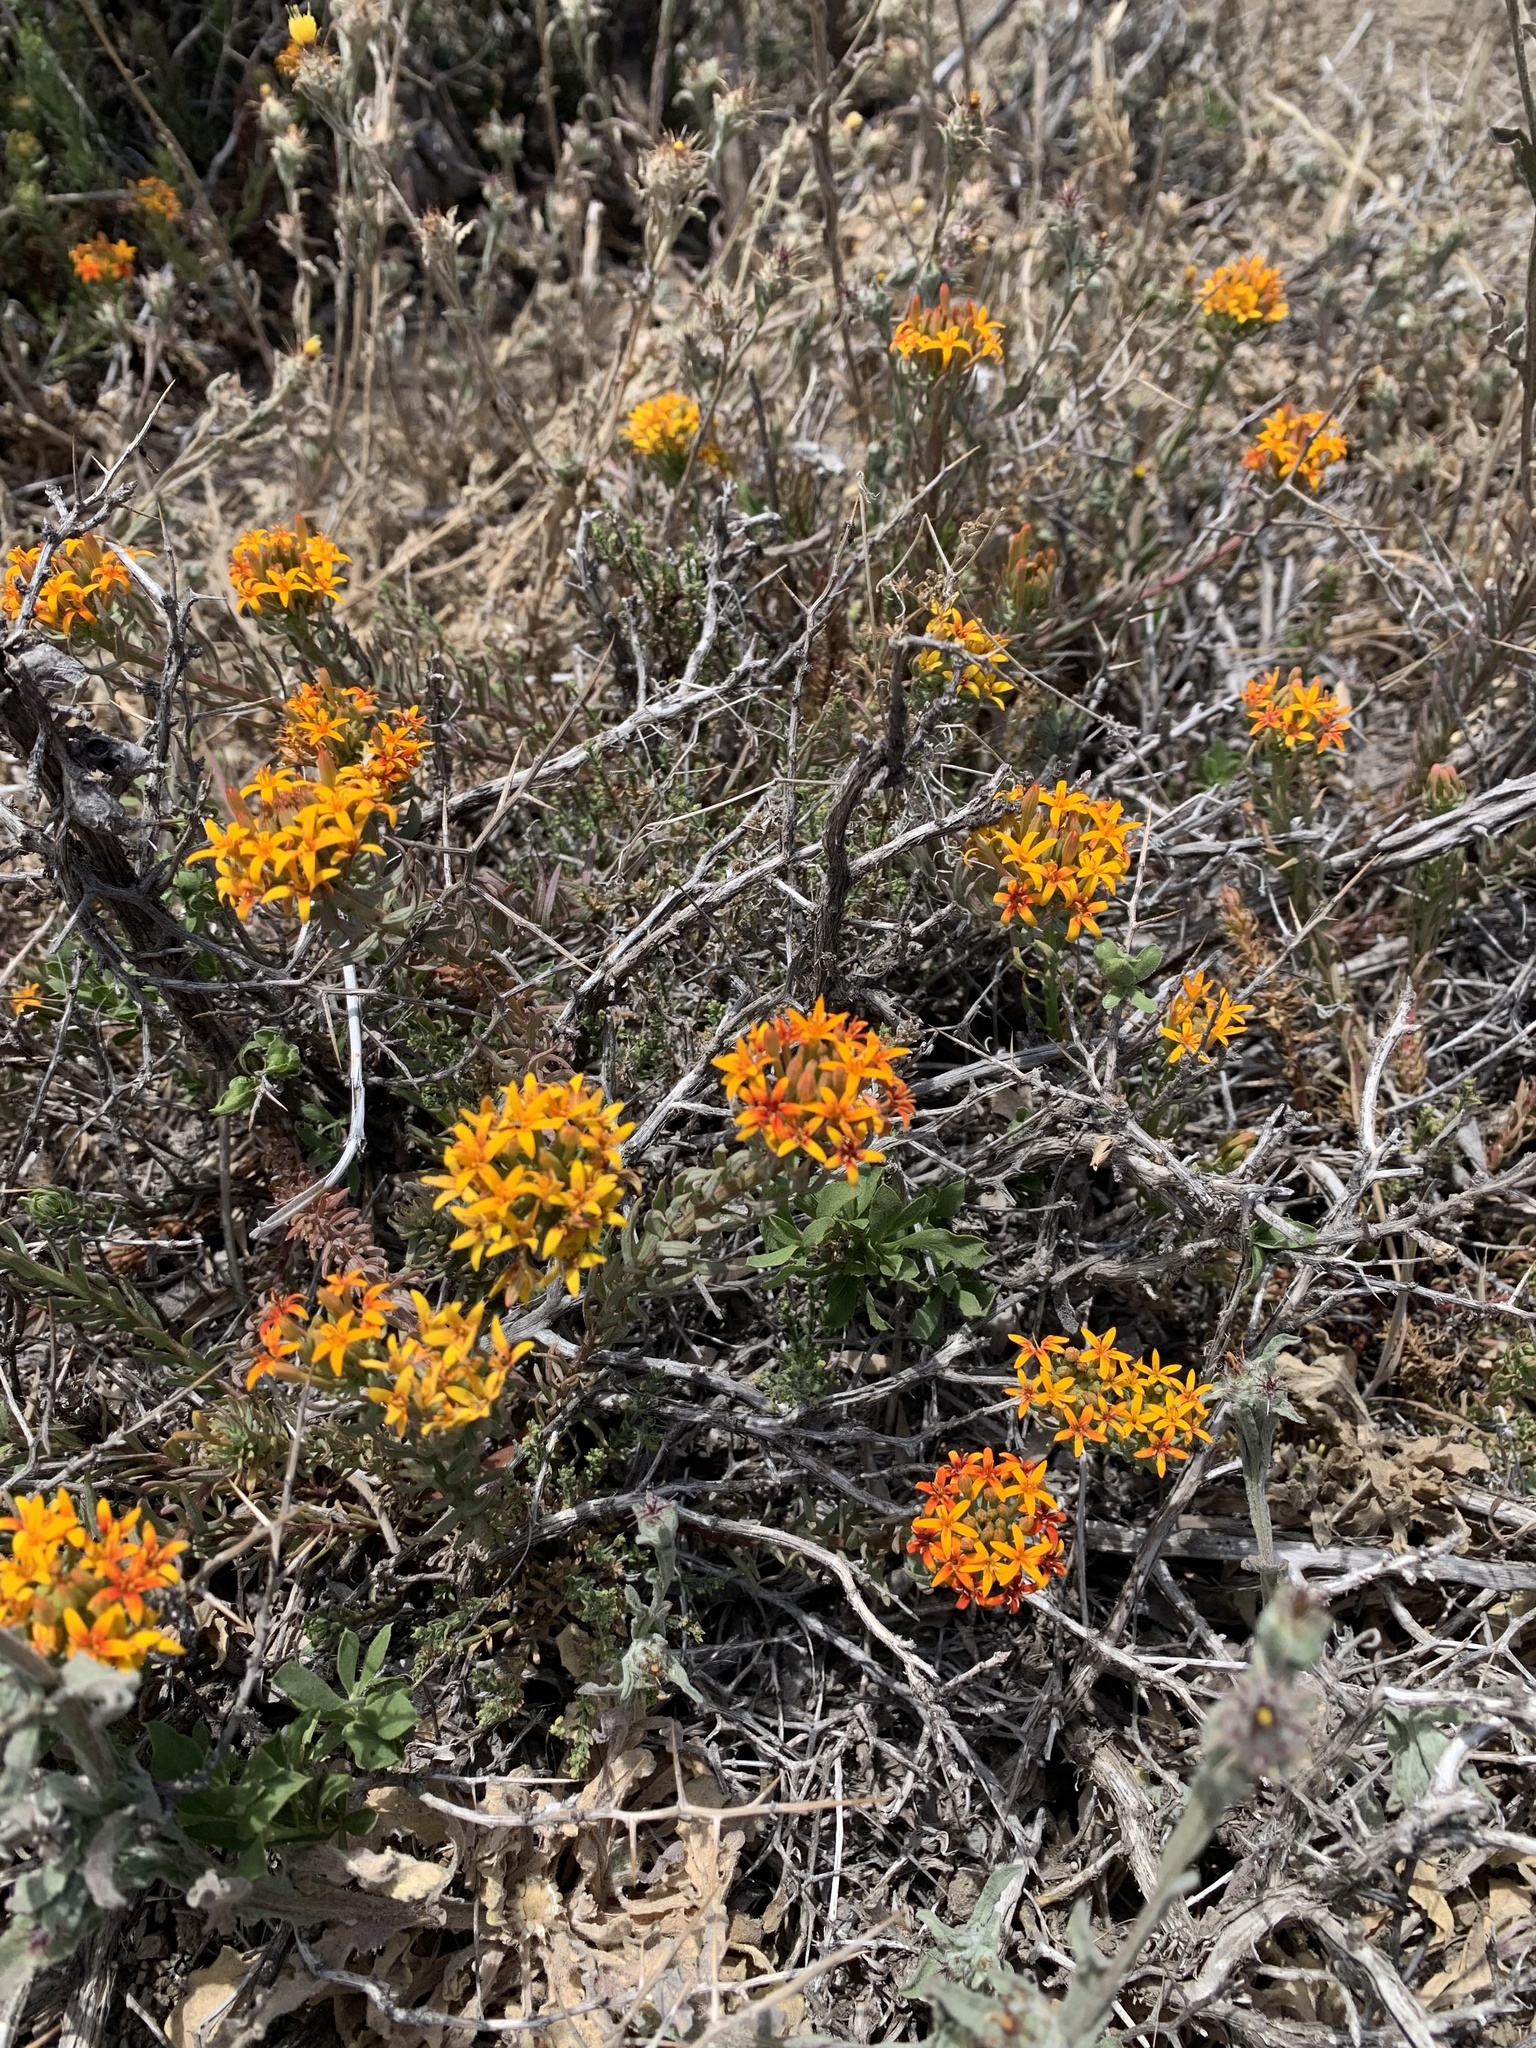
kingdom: Plantae
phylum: Tracheophyta
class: Magnoliopsida
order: Santalales
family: Schoepfiaceae
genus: Quinchamalium
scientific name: Quinchamalium chilense
